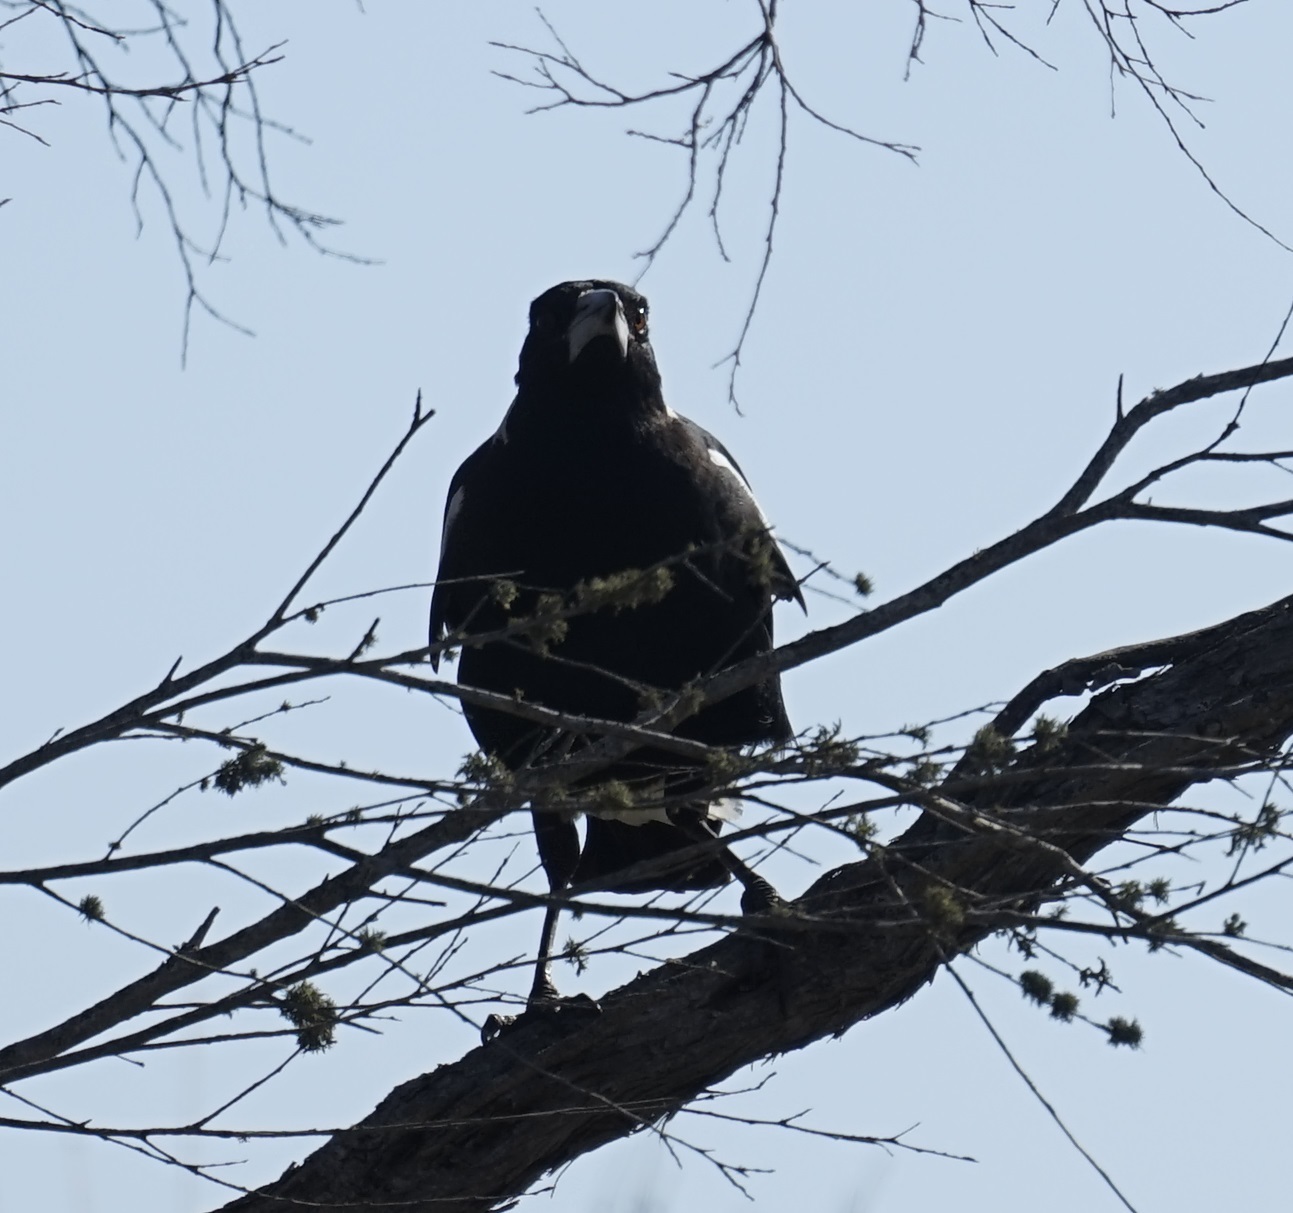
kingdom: Animalia
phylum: Chordata
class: Aves
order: Passeriformes
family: Cracticidae
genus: Gymnorhina
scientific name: Gymnorhina tibicen
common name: Australian magpie
